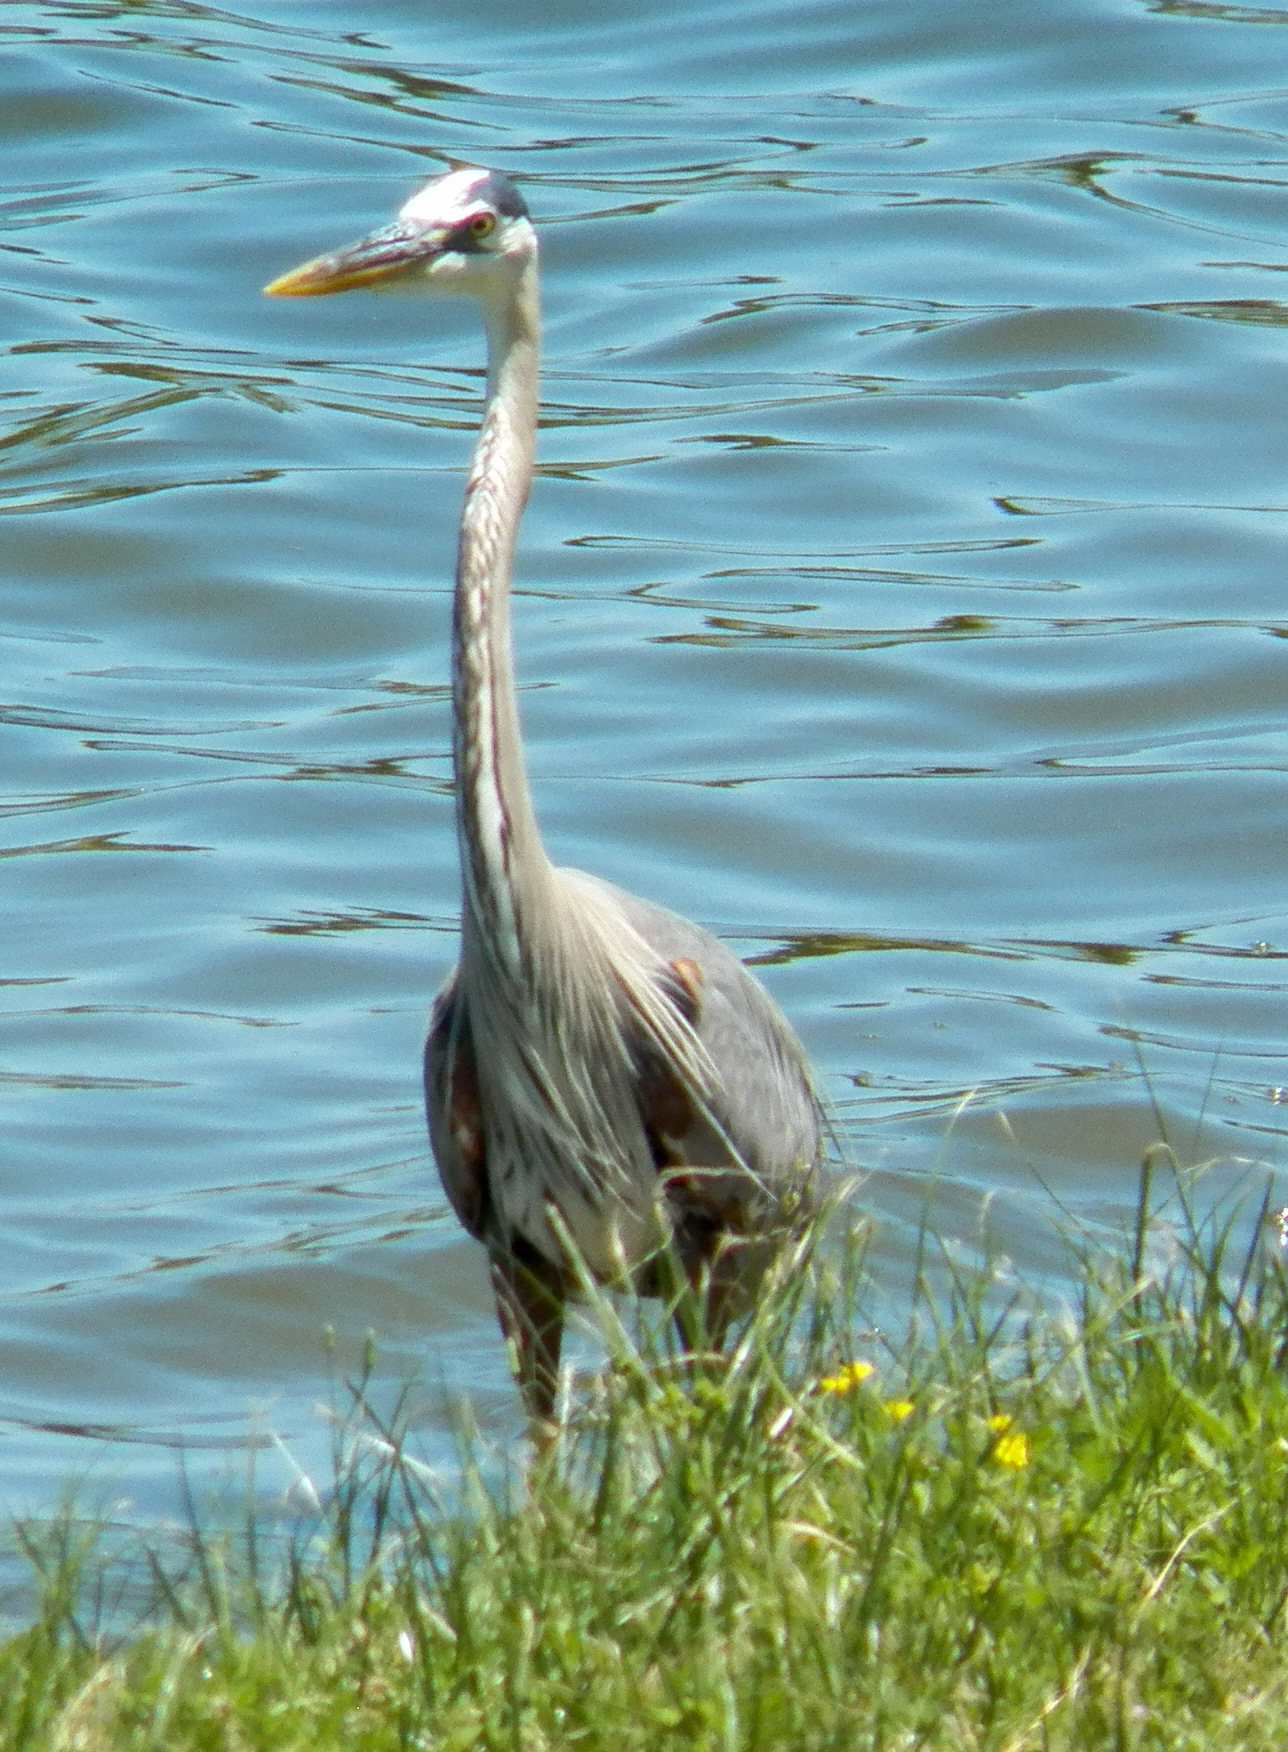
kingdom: Animalia
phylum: Chordata
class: Aves
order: Pelecaniformes
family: Ardeidae
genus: Ardea
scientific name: Ardea herodias
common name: Great blue heron
